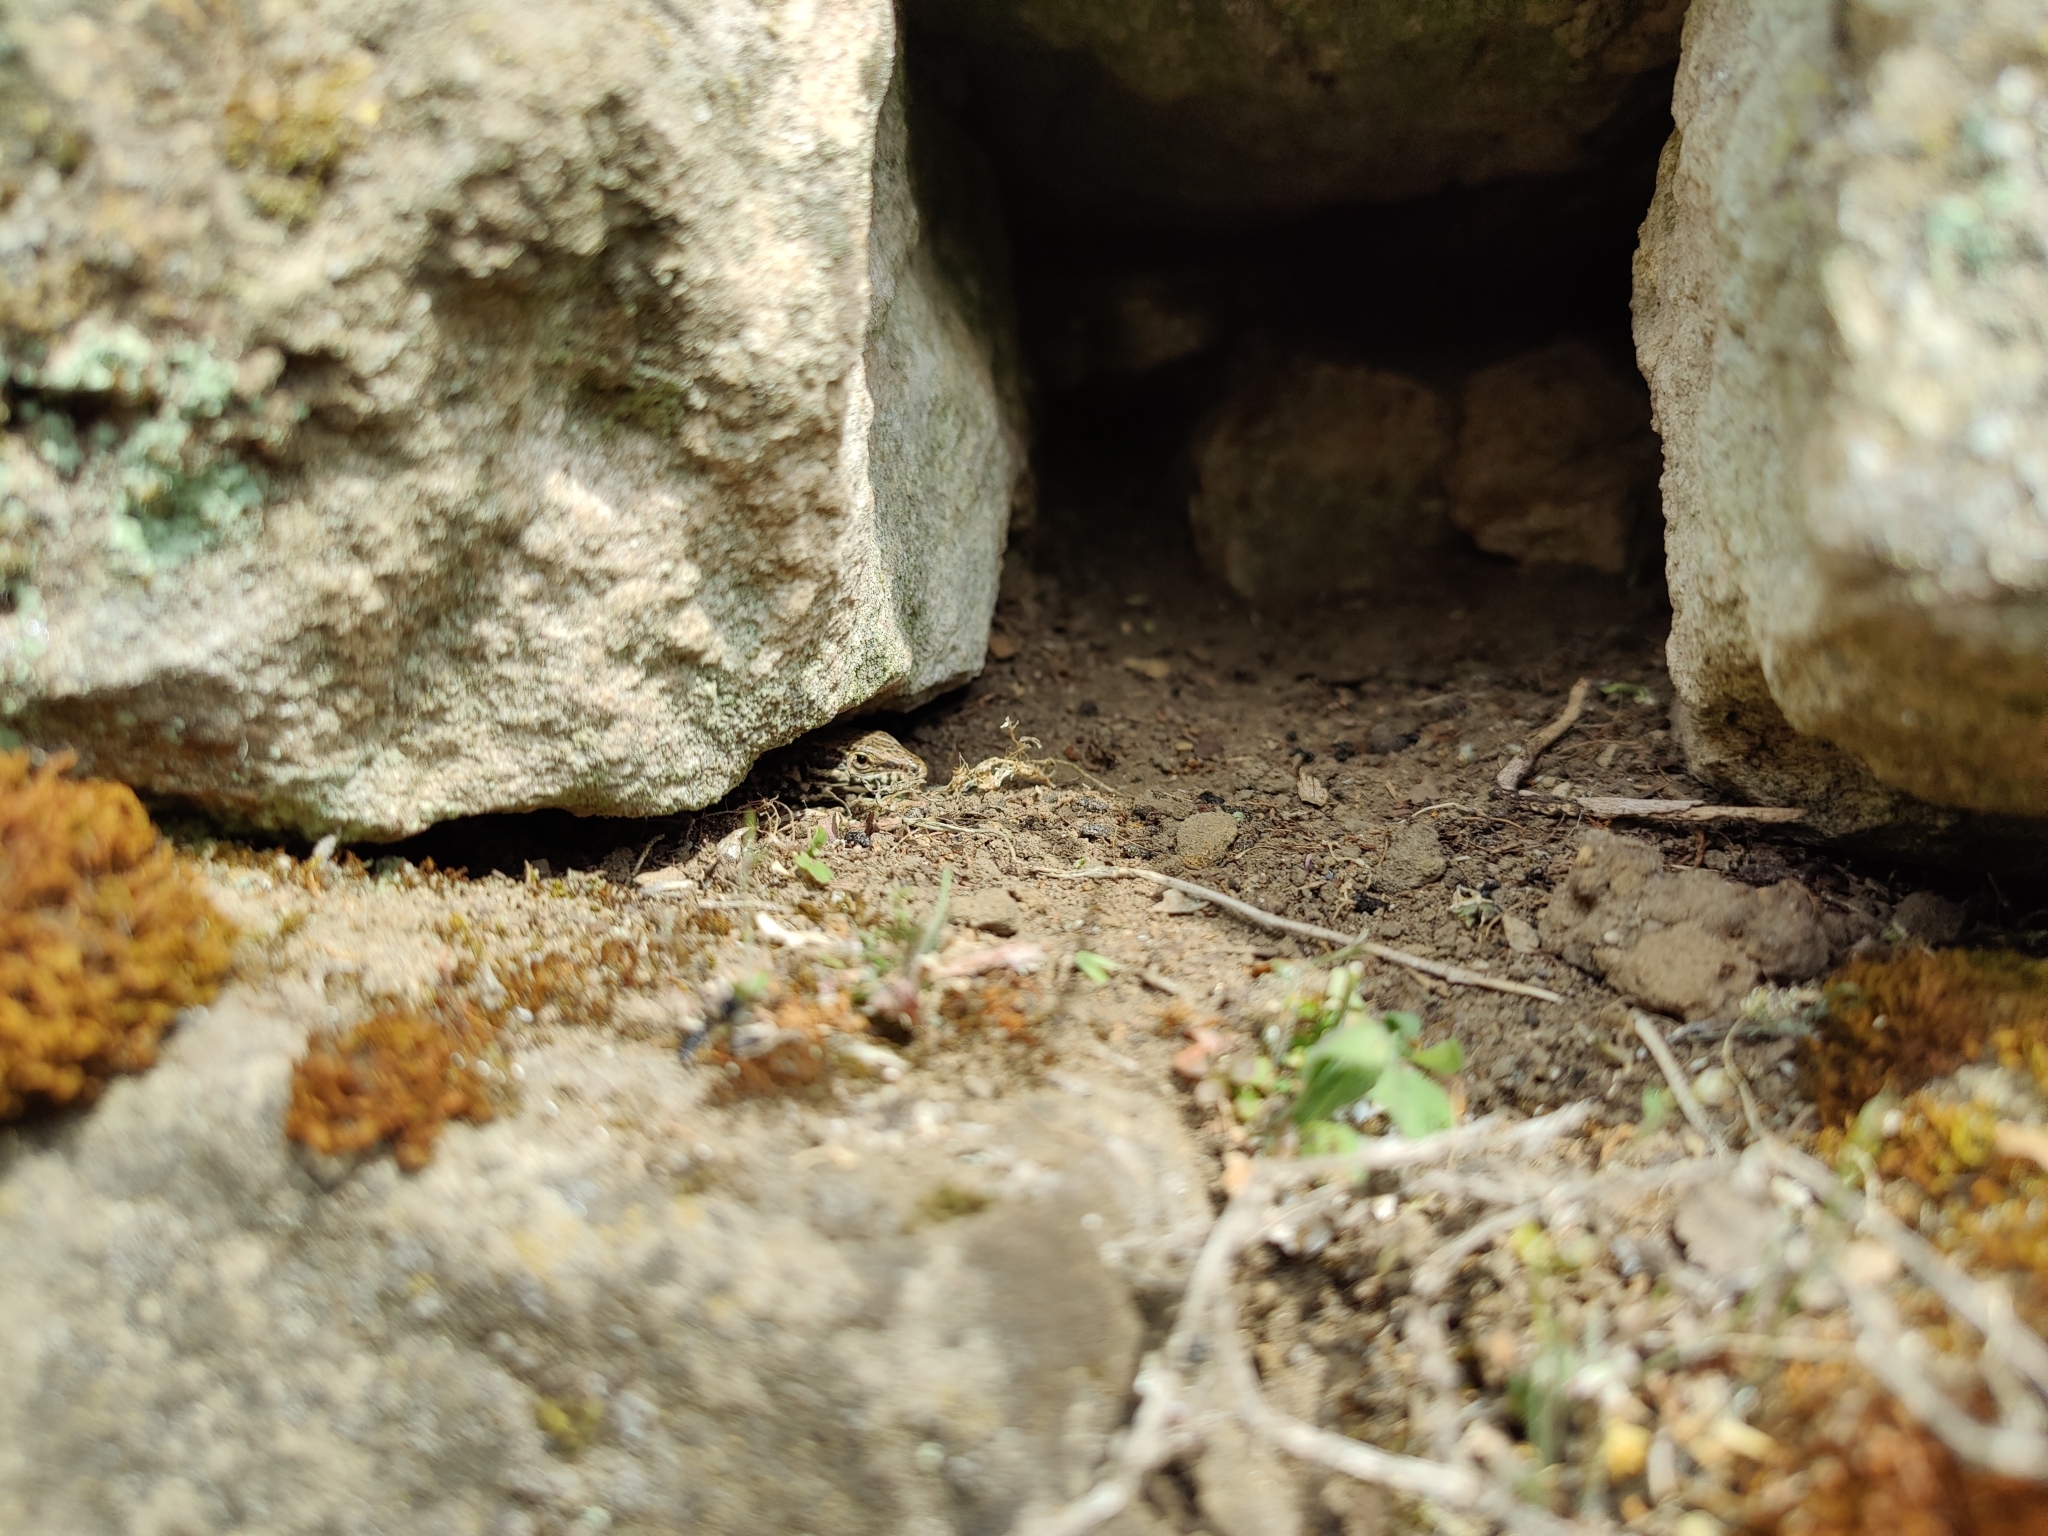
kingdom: Animalia
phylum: Chordata
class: Squamata
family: Lacertidae
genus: Podarcis
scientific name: Podarcis muralis
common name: Common wall lizard
